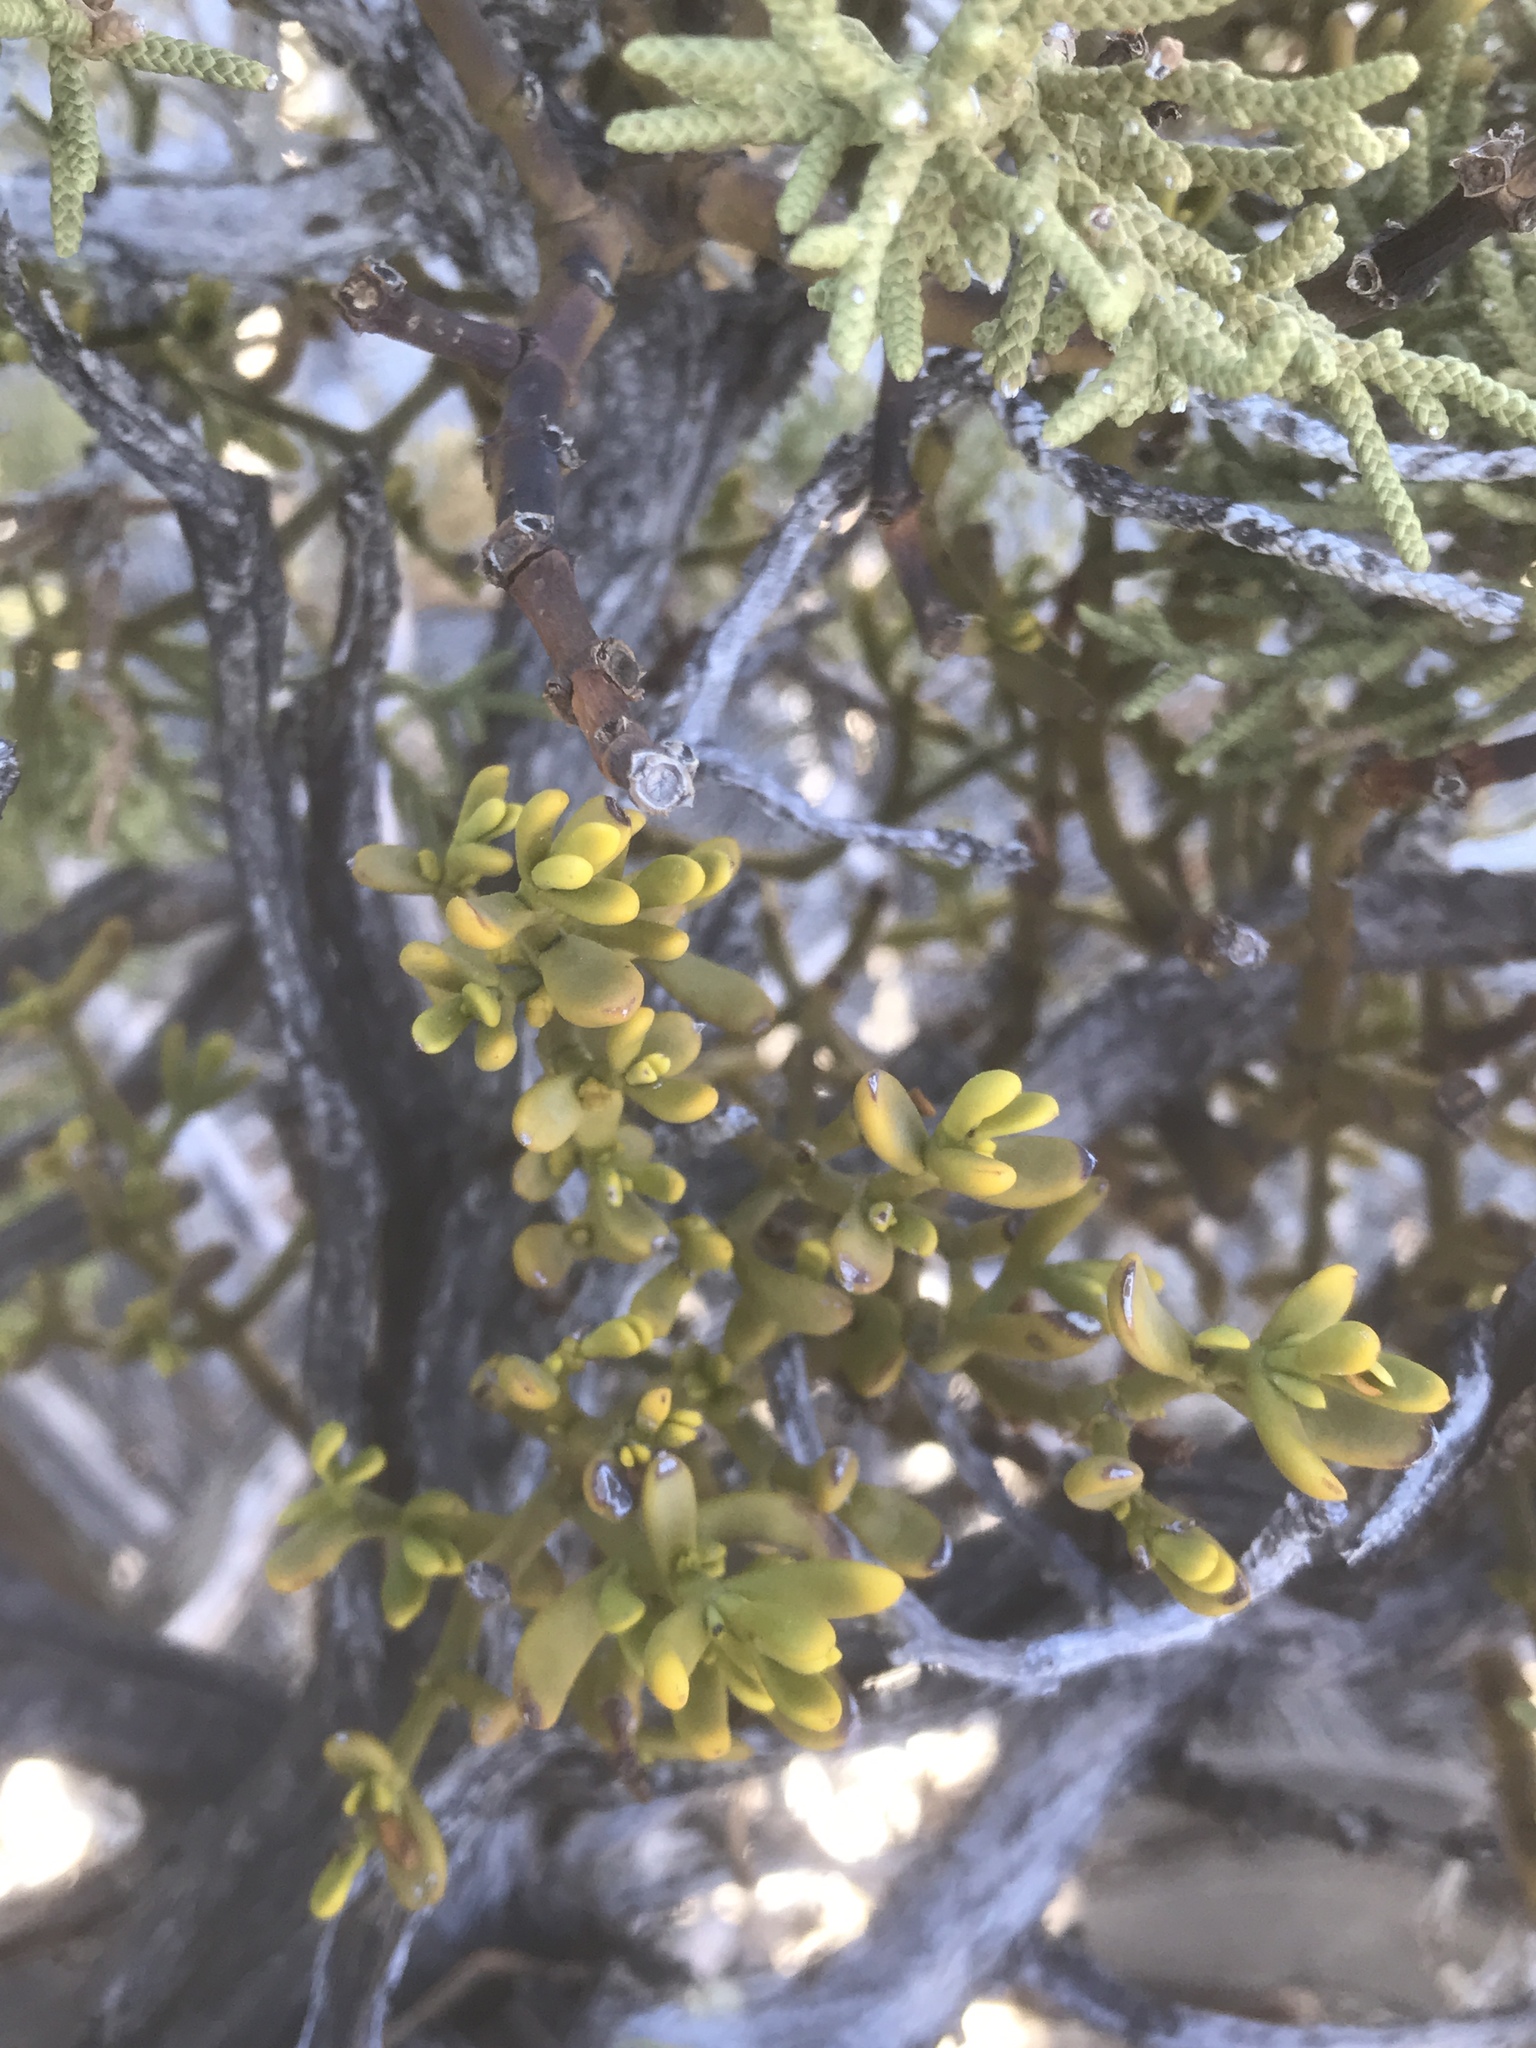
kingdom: Plantae
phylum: Tracheophyta
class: Magnoliopsida
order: Santalales
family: Viscaceae
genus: Phoradendron
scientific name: Phoradendron bolleanum
